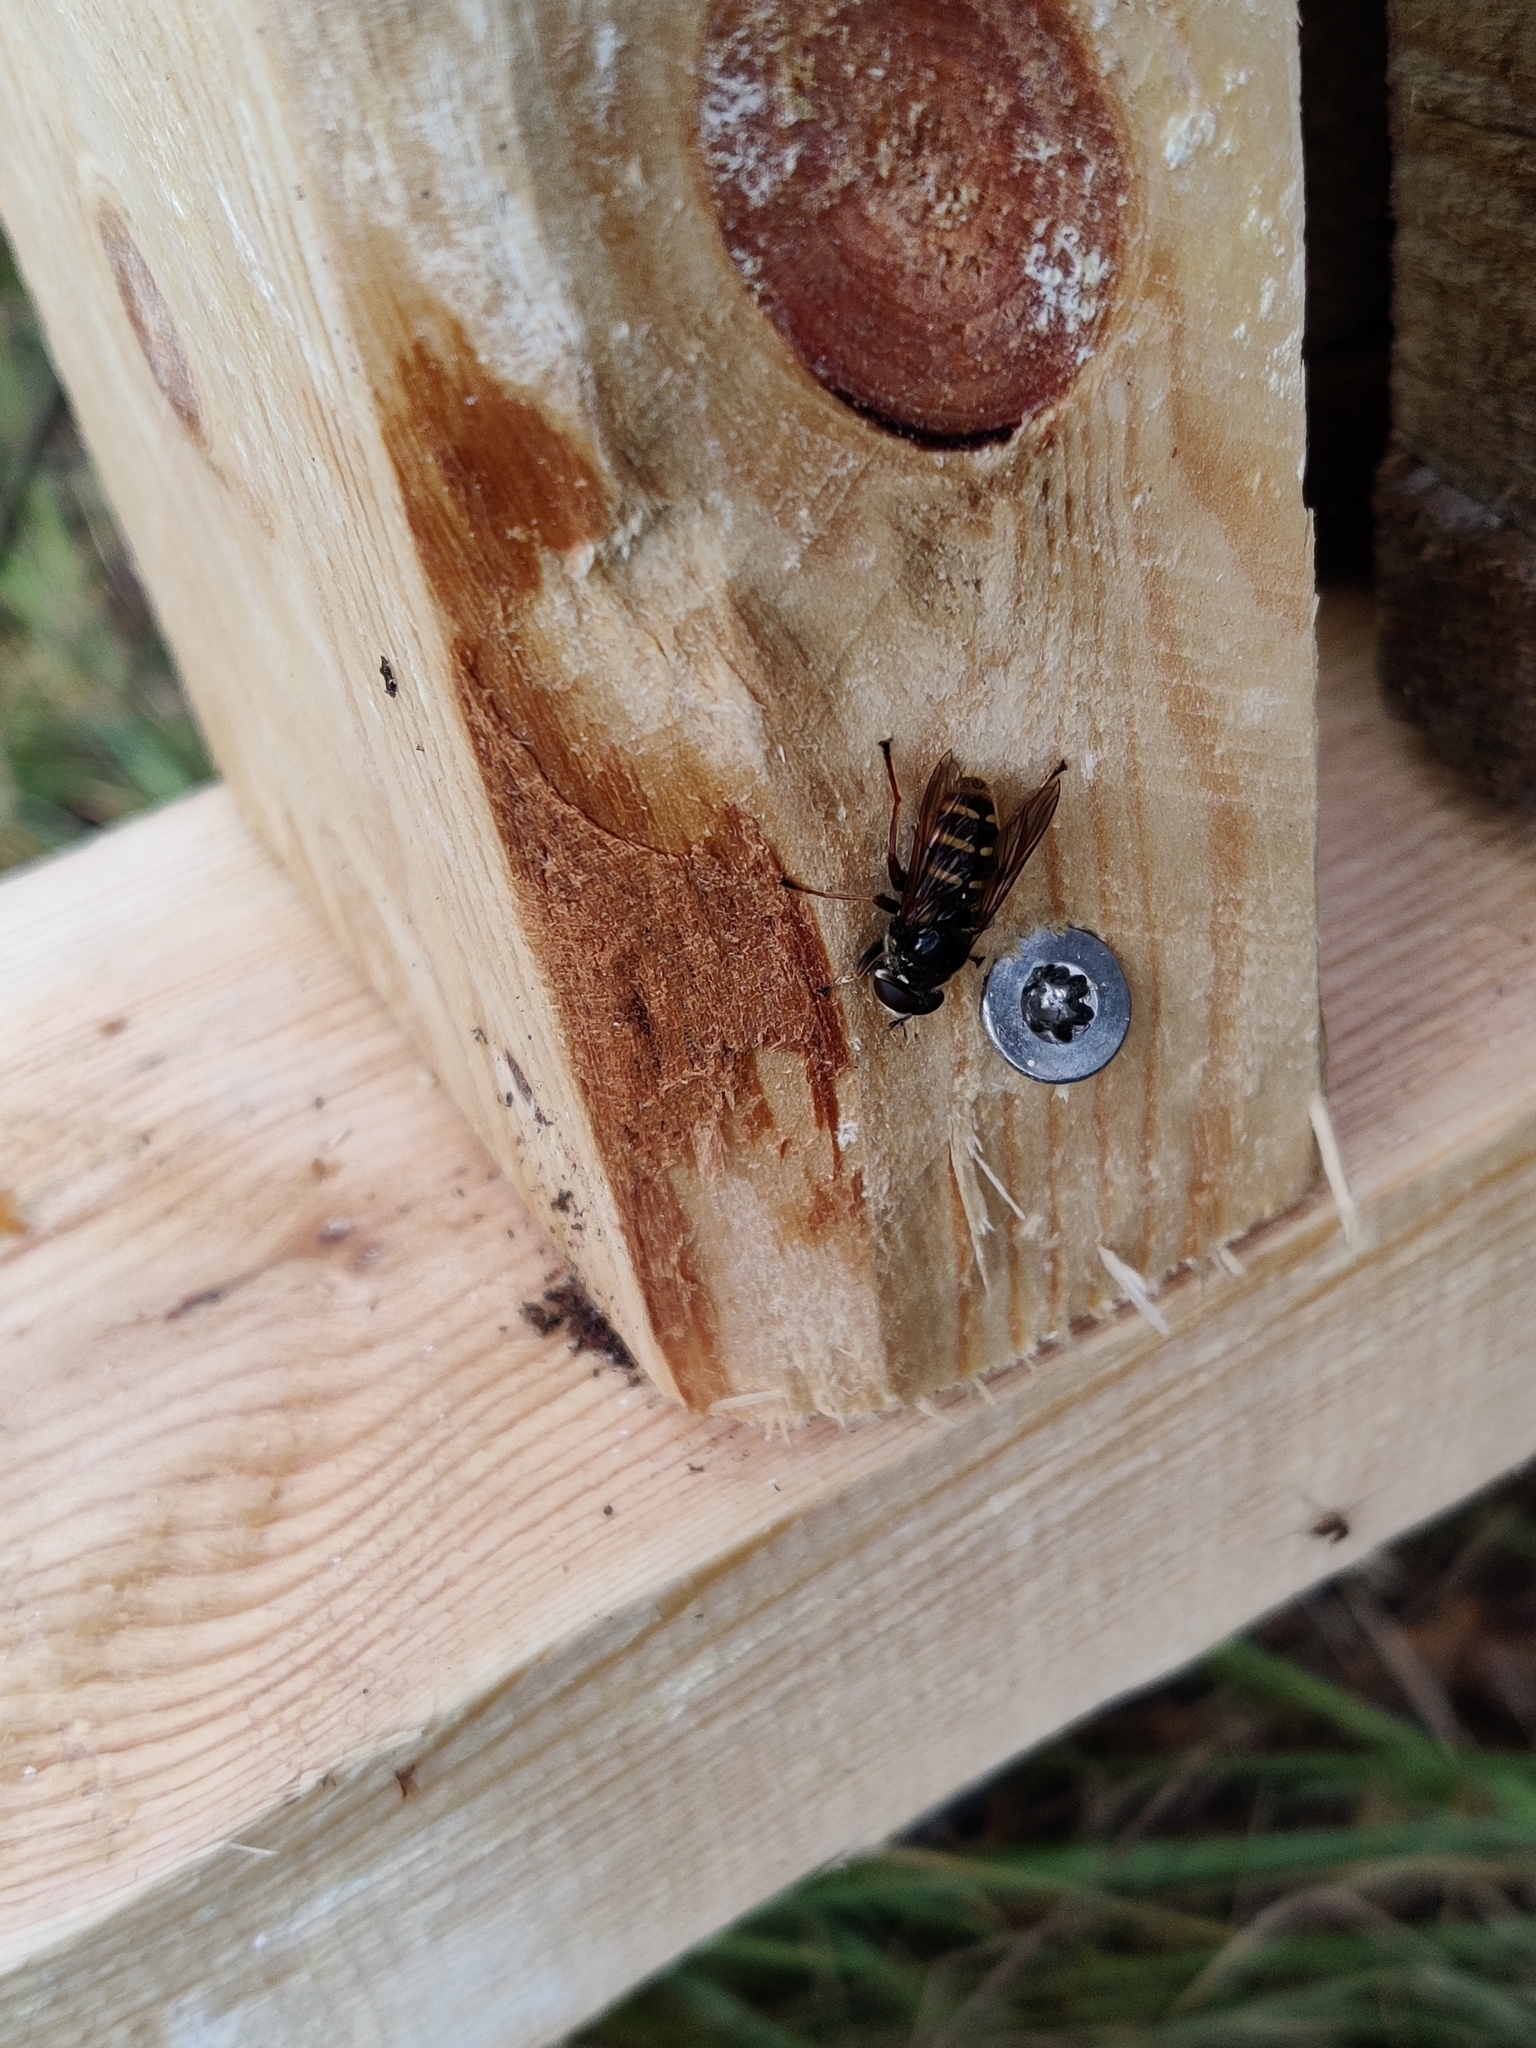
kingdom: Animalia
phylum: Arthropoda
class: Insecta
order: Diptera
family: Syrphidae
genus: Sericomyia
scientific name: Sericomyia silentis
